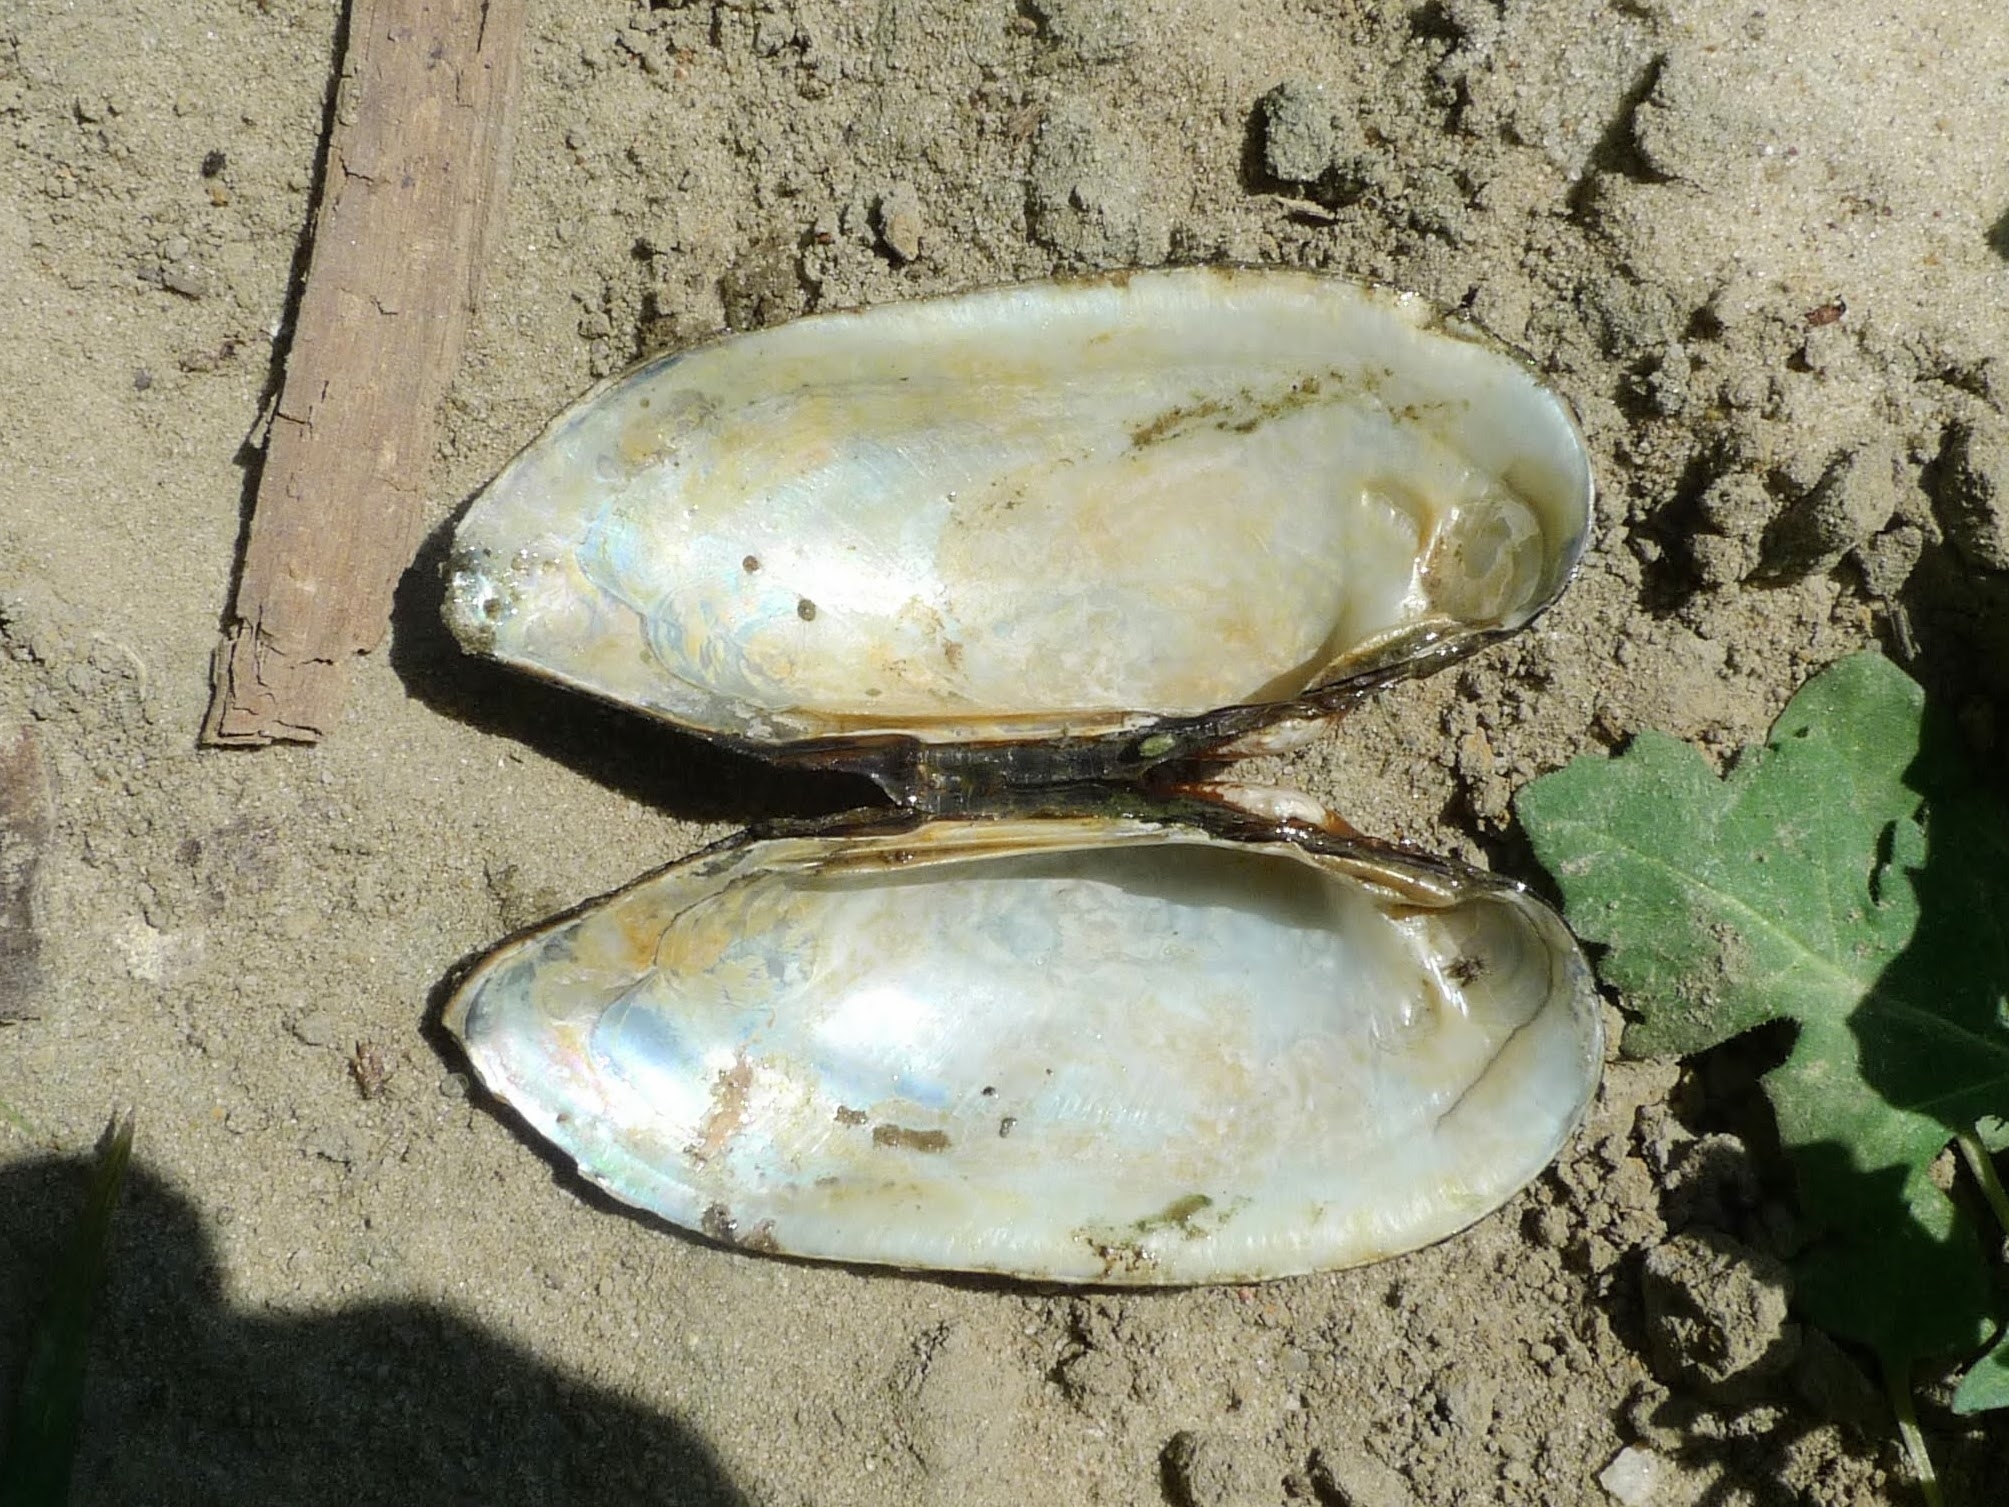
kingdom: Animalia
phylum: Mollusca
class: Bivalvia
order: Unionida
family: Unionidae
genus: Unio
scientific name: Unio pictorum
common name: Painter's mussel
